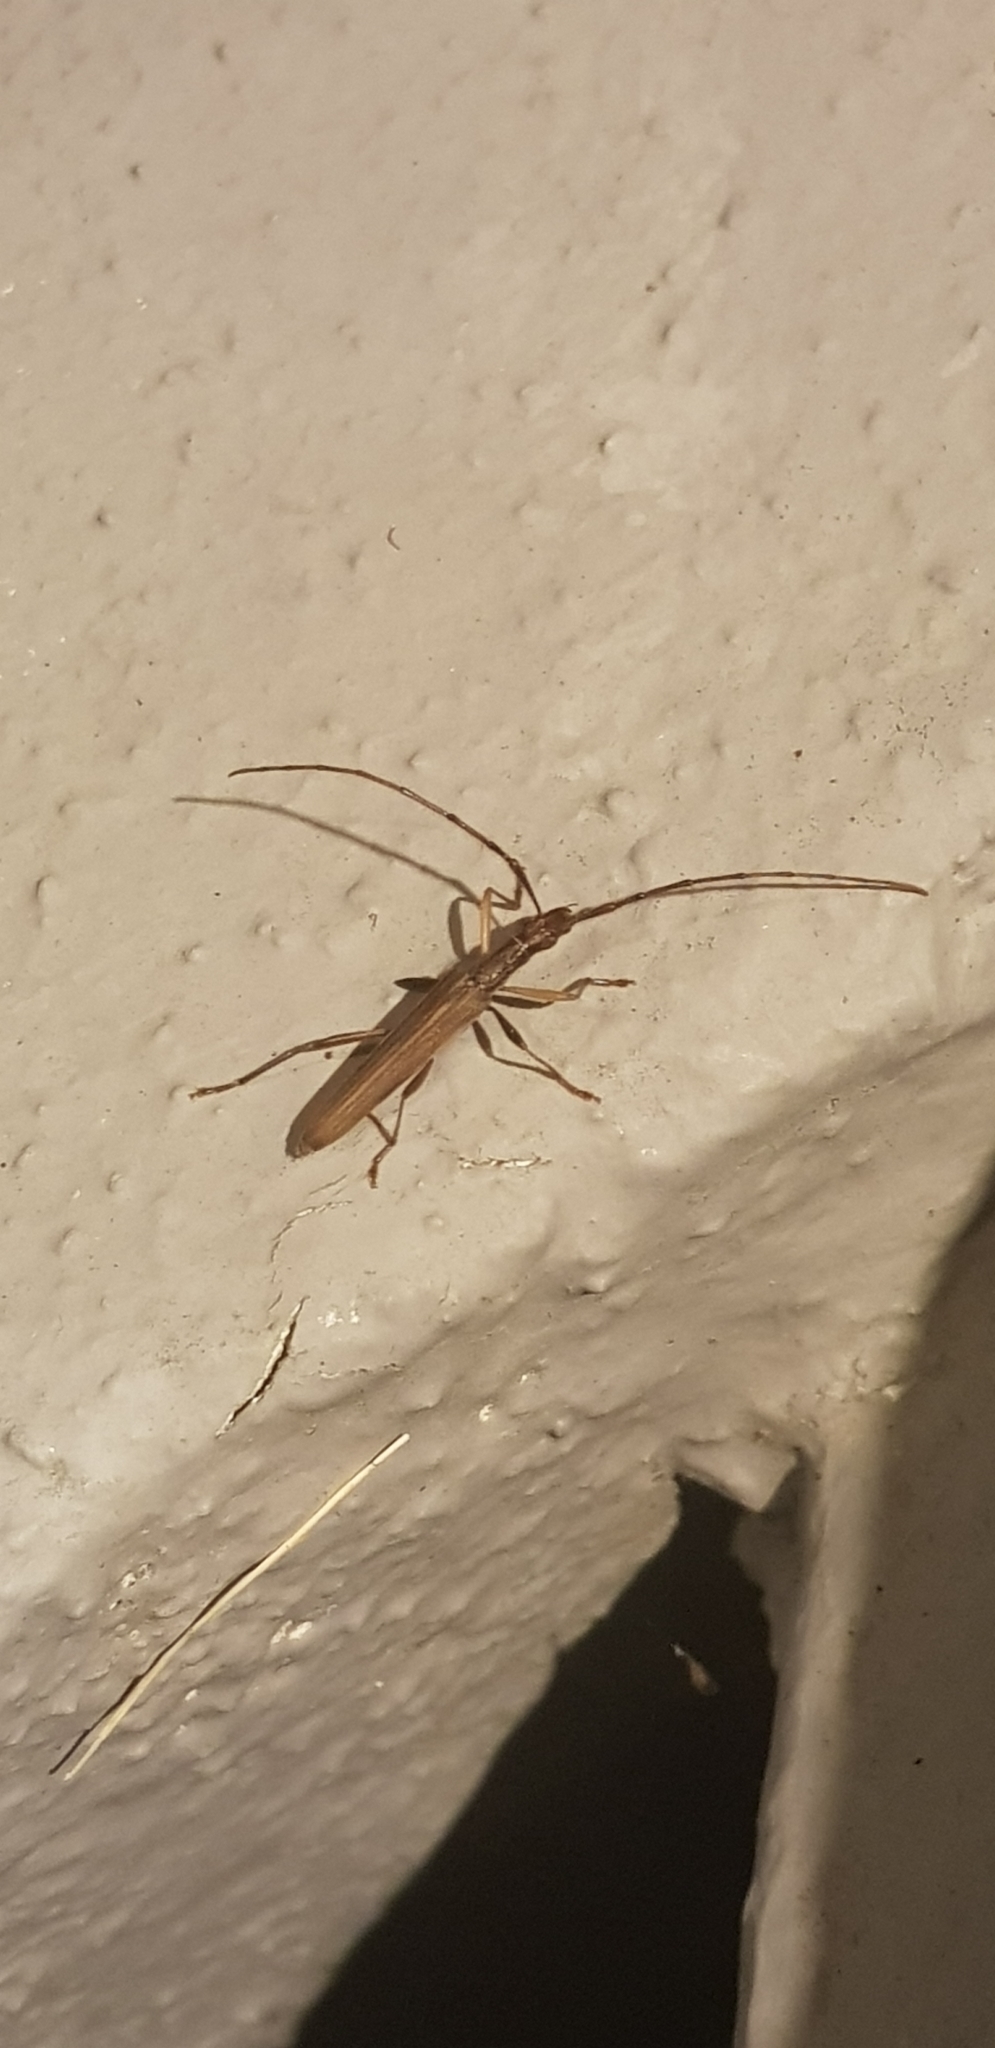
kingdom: Animalia
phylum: Arthropoda
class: Insecta
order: Coleoptera
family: Cerambycidae
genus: Stenopotes
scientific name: Stenopotes pallidus
